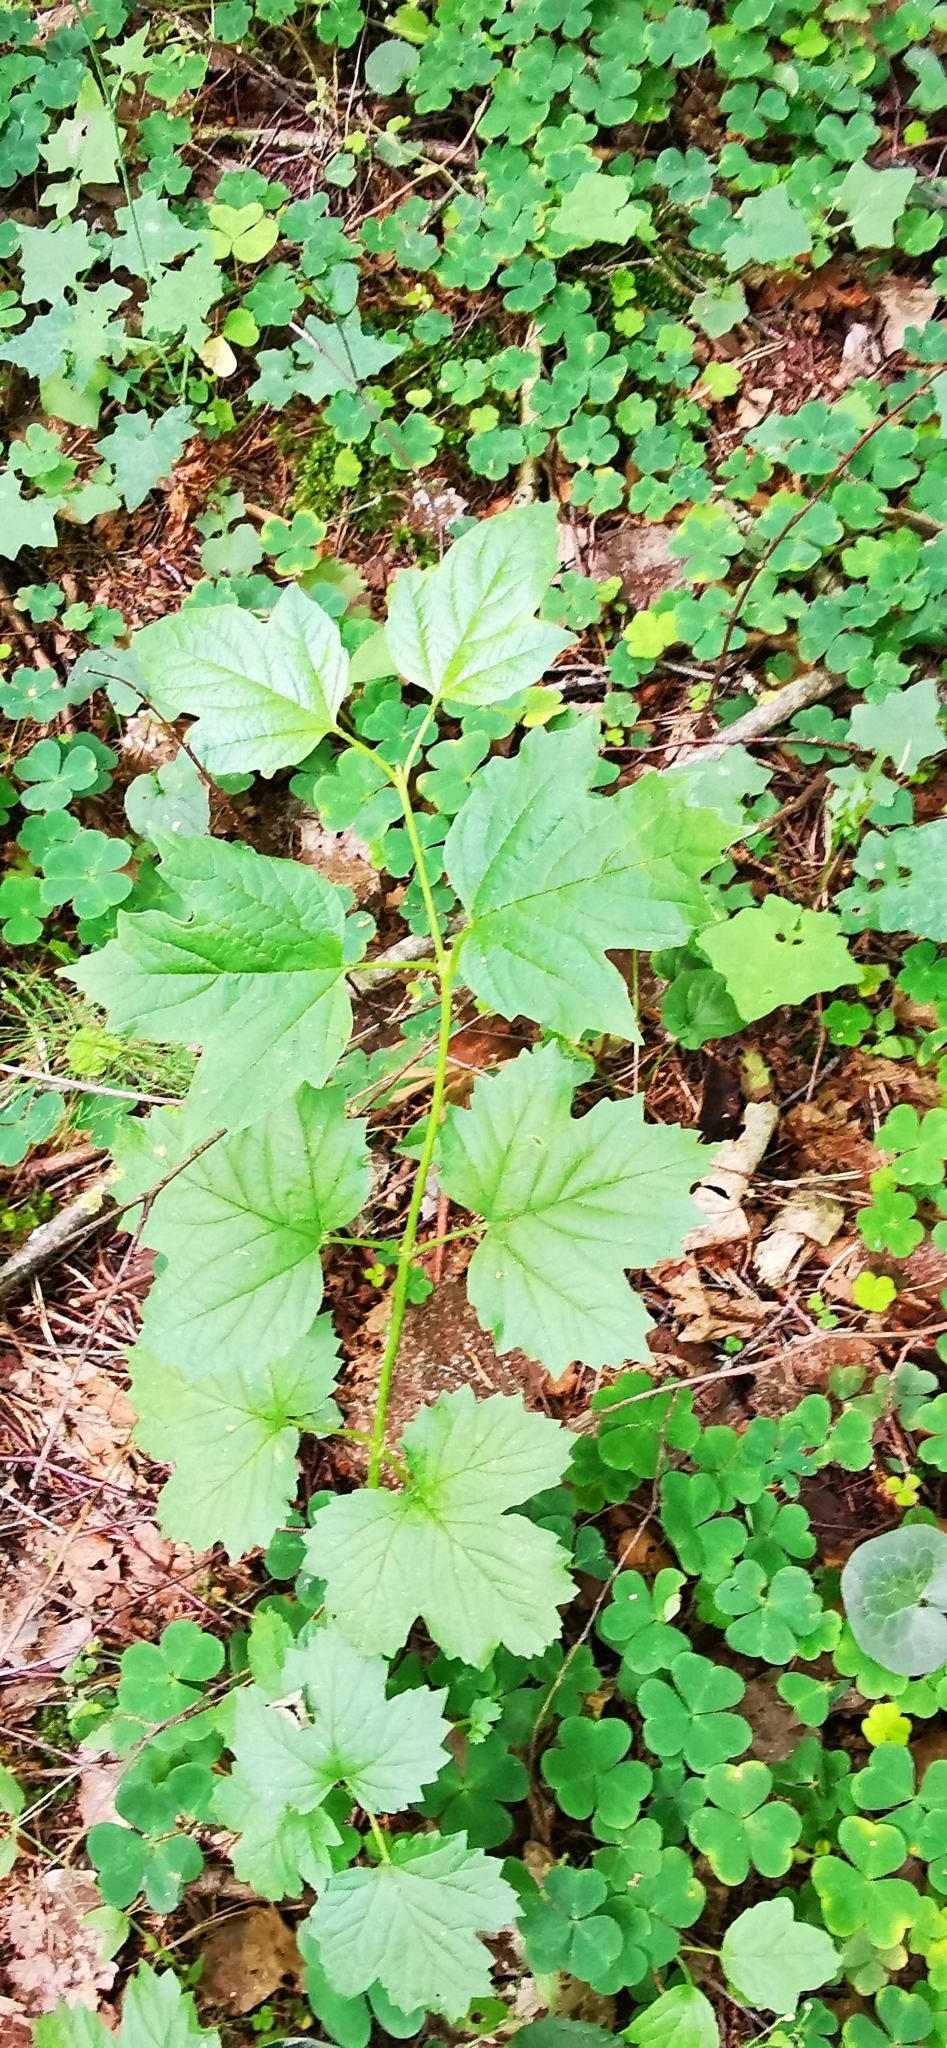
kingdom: Plantae
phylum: Tracheophyta
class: Magnoliopsida
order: Dipsacales
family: Viburnaceae
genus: Viburnum
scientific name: Viburnum opulus
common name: Guelder-rose
